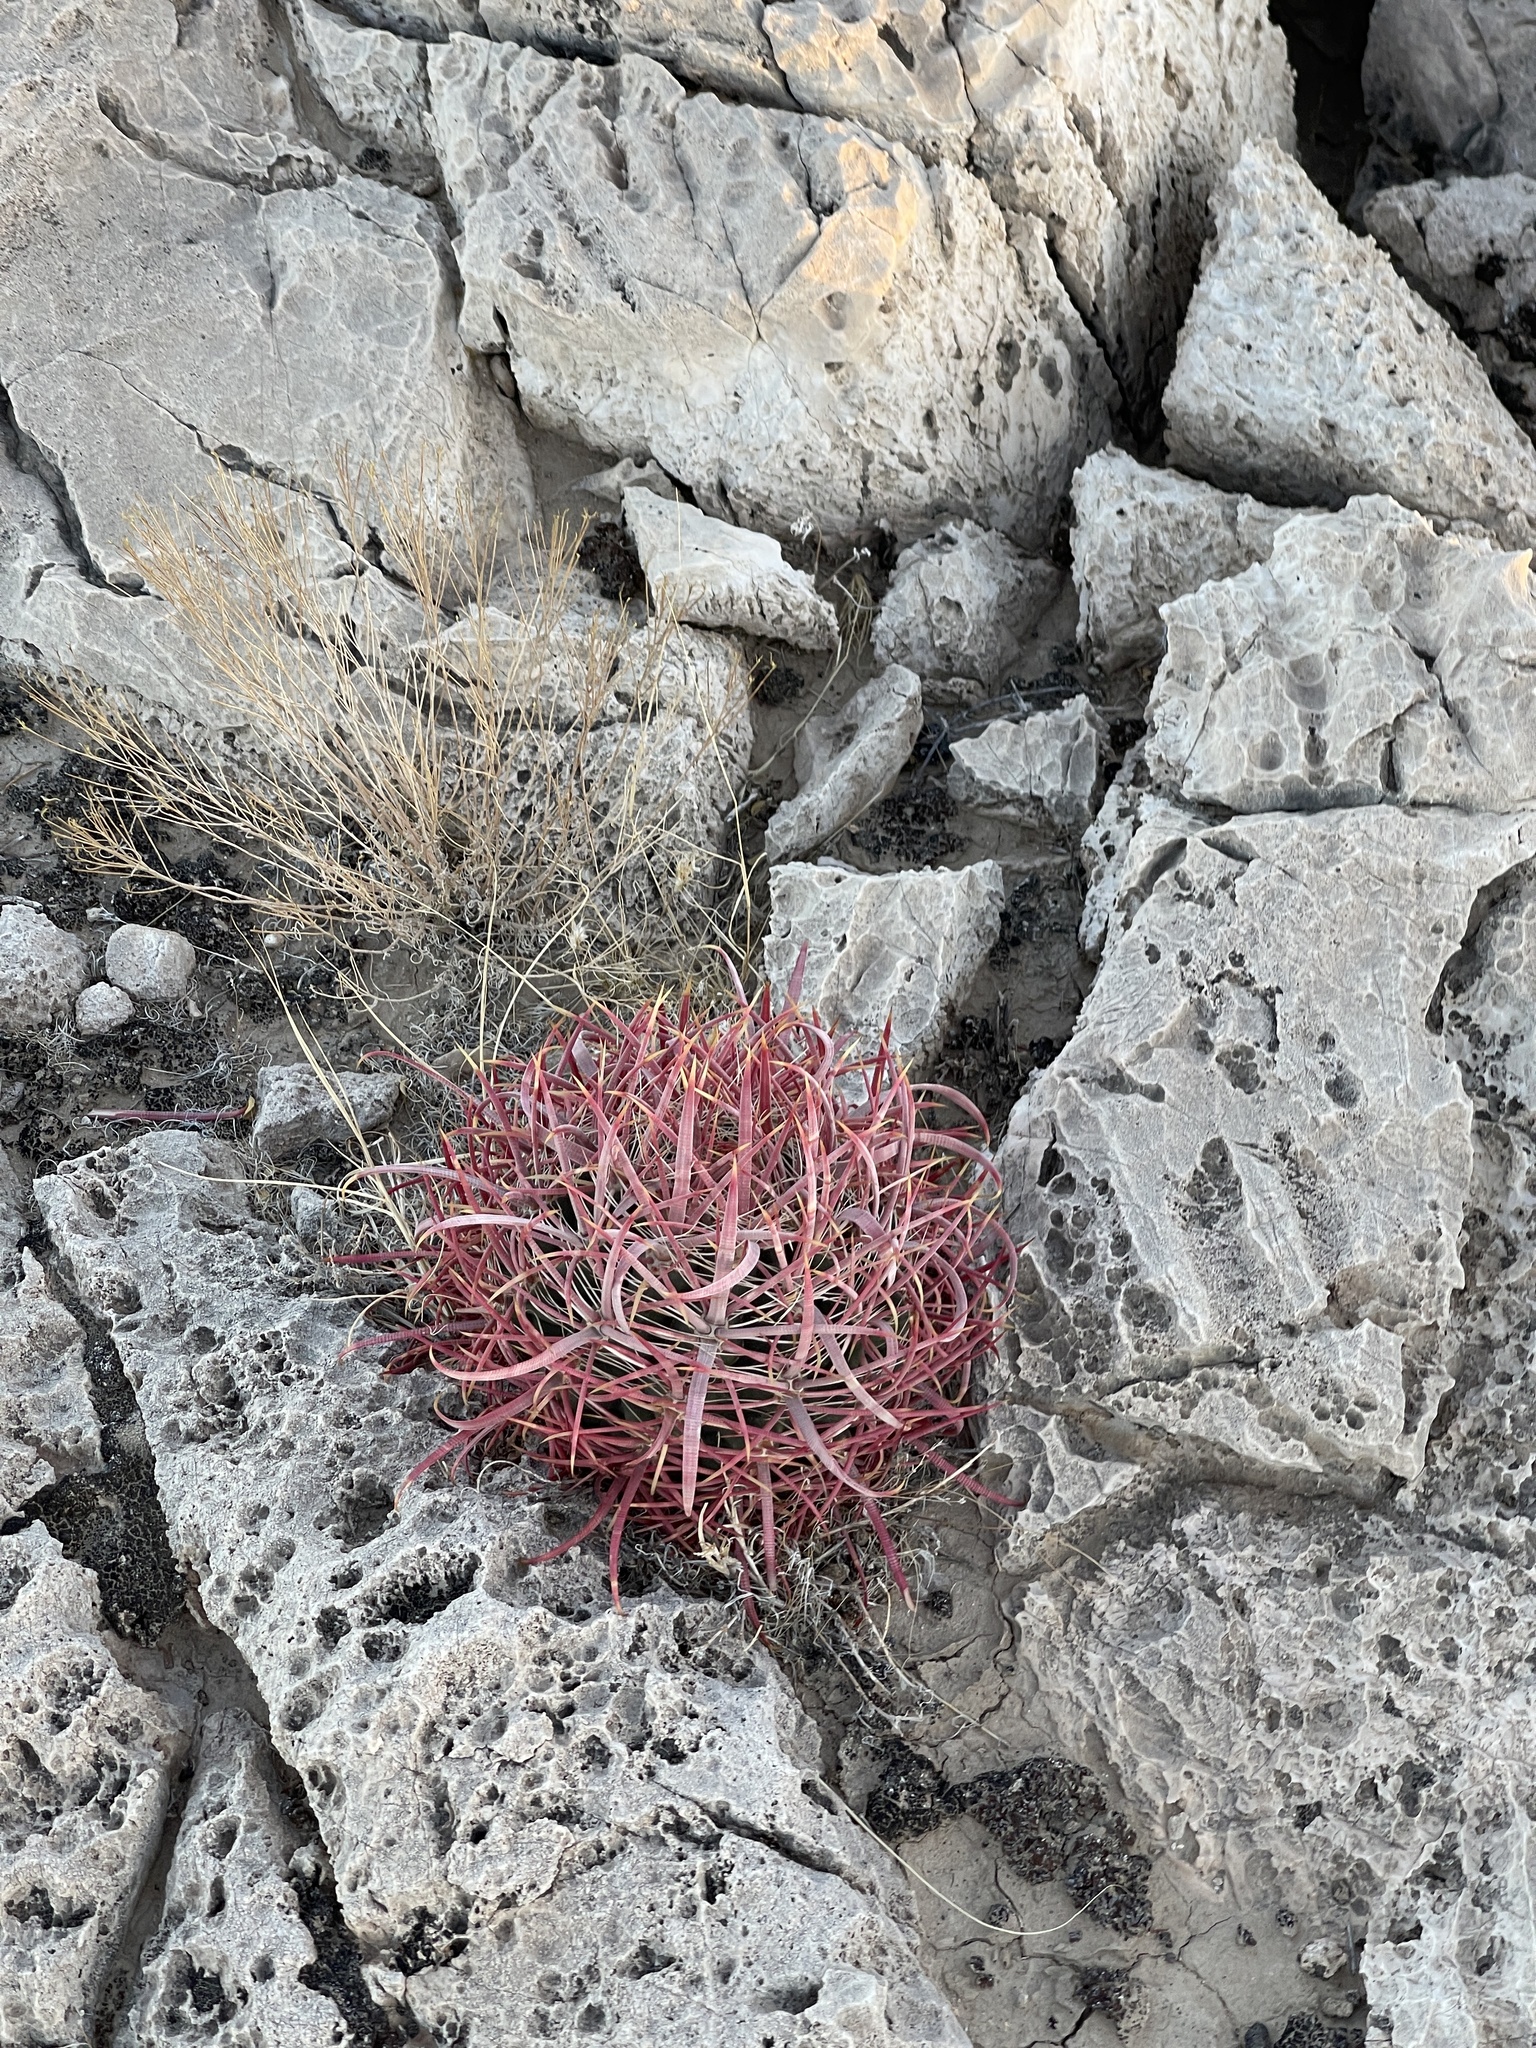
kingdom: Plantae
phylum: Tracheophyta
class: Magnoliopsida
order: Caryophyllales
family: Cactaceae
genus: Ferocactus
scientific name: Ferocactus cylindraceus
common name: California barrel cactus
